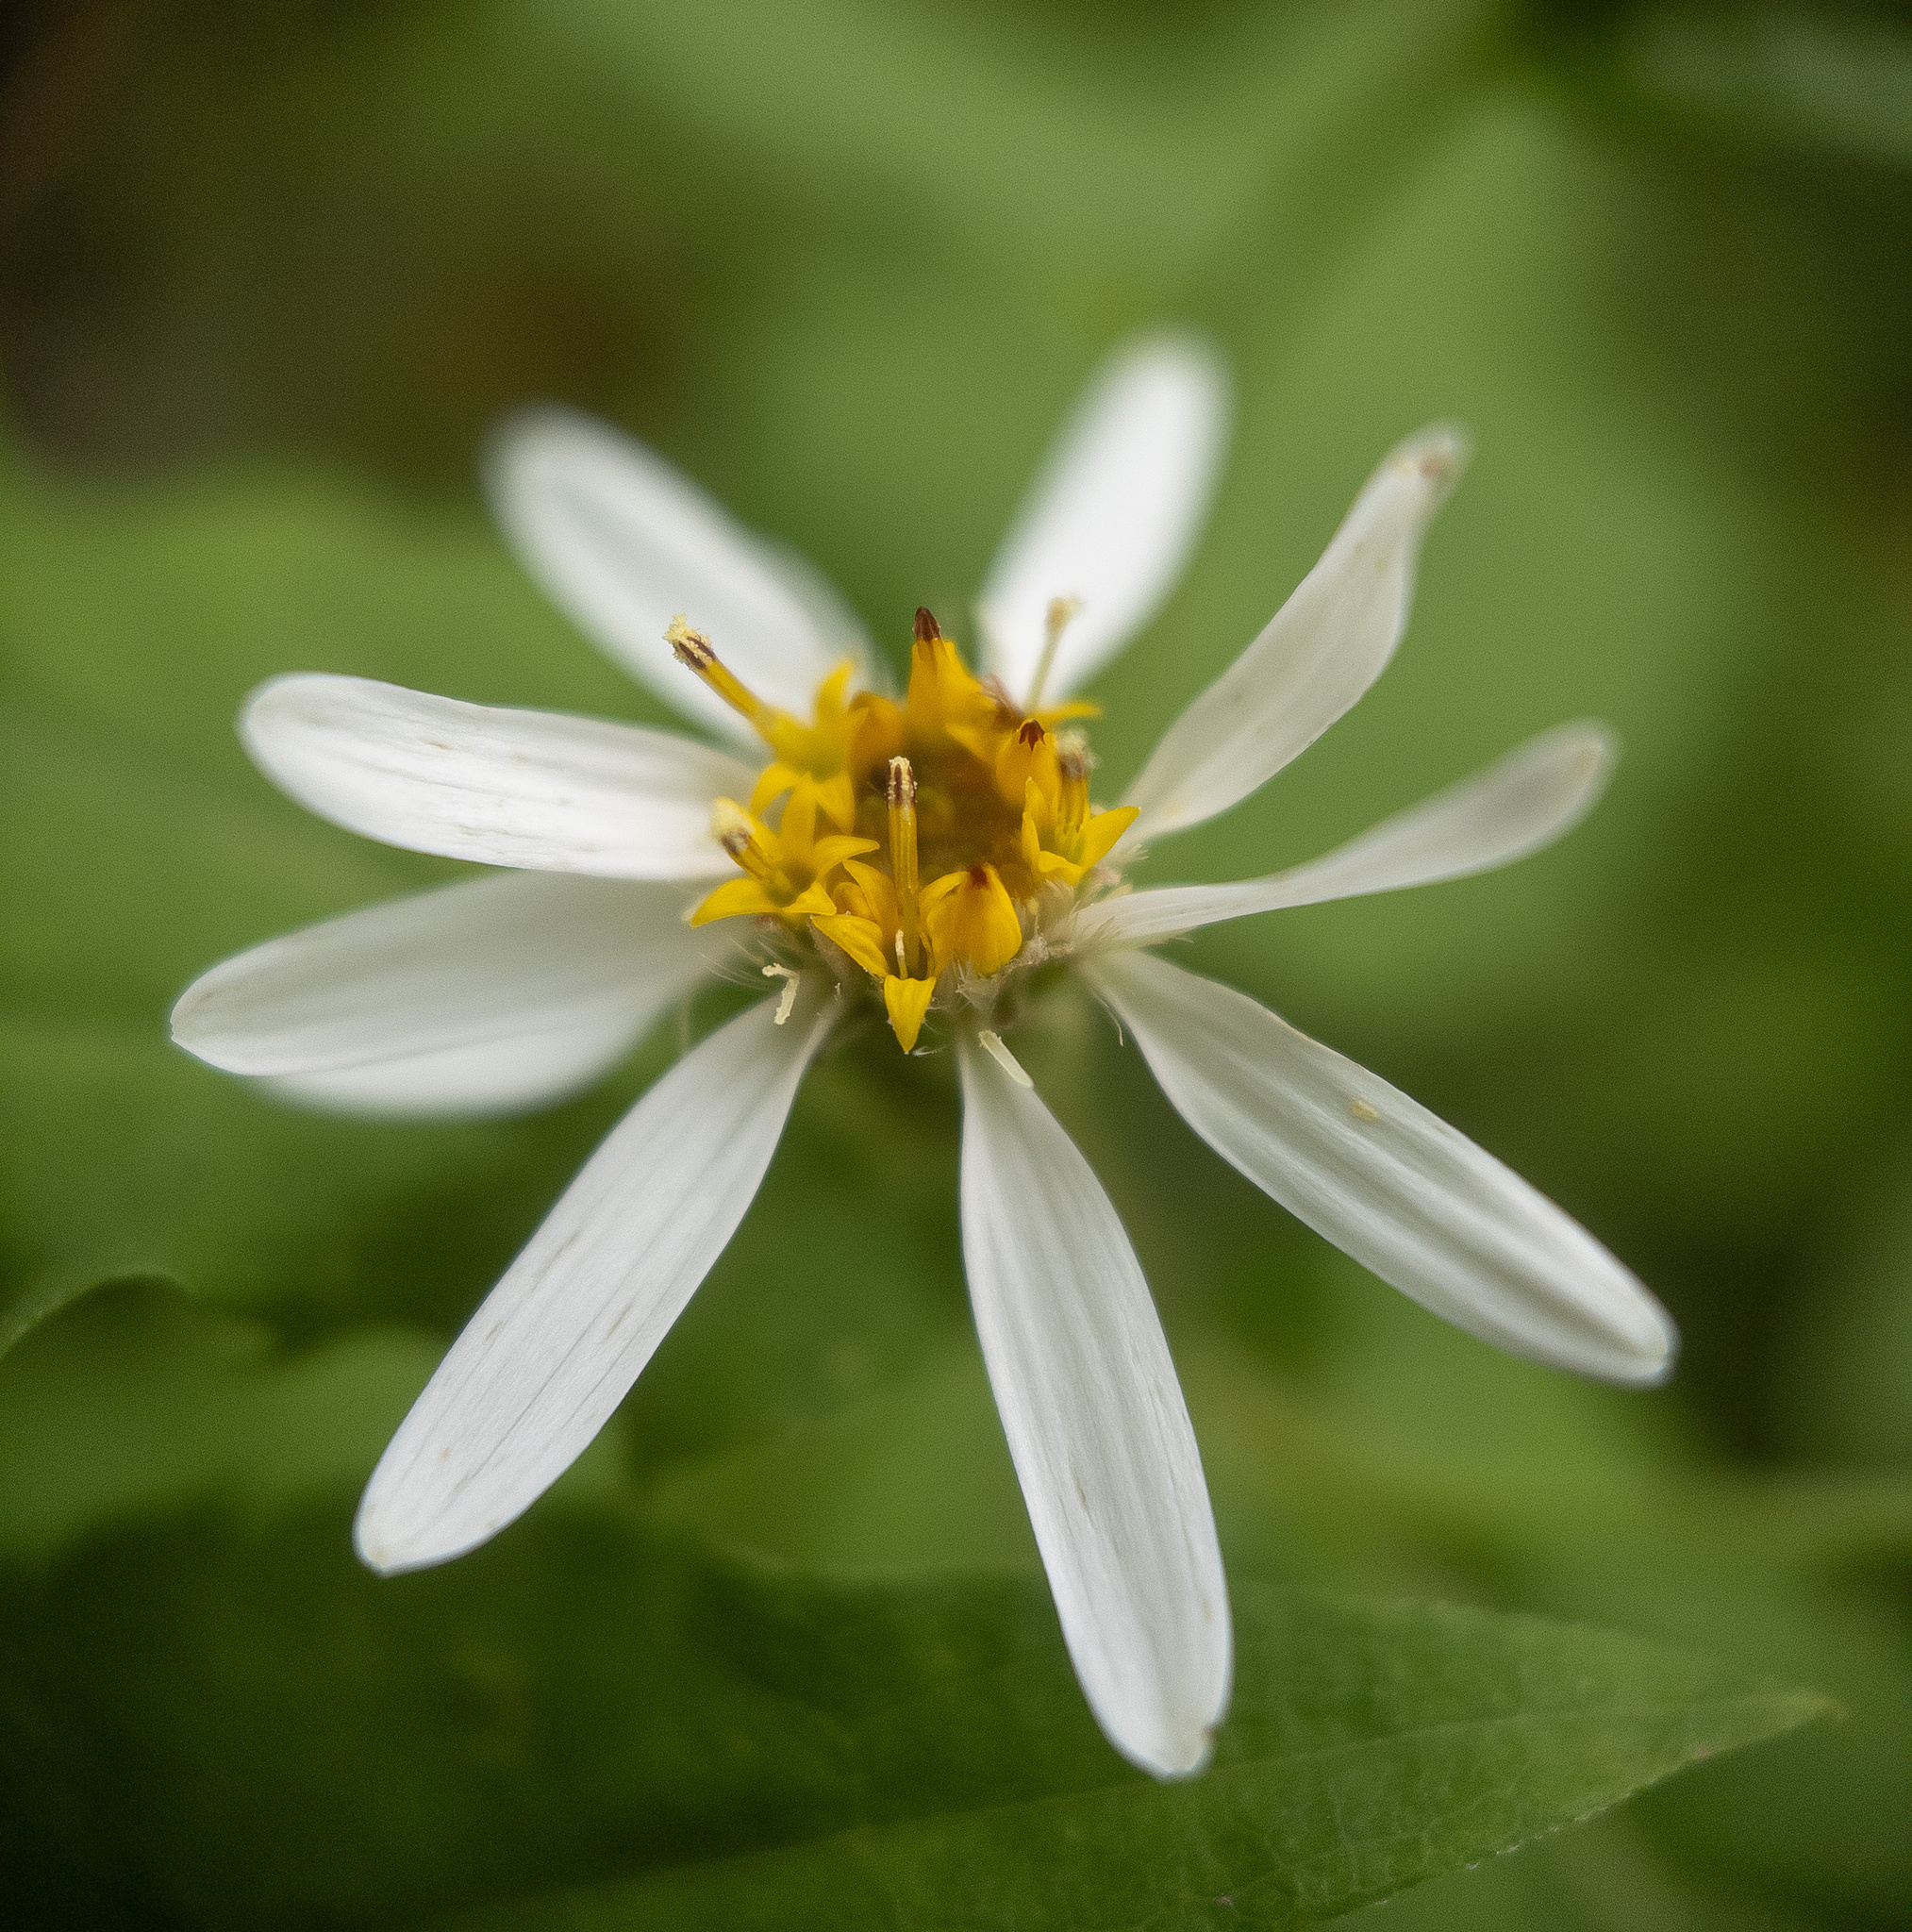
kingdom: Plantae
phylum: Tracheophyta
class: Magnoliopsida
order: Asterales
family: Asteraceae
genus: Eurybia
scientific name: Eurybia divaricata
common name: White wood aster
